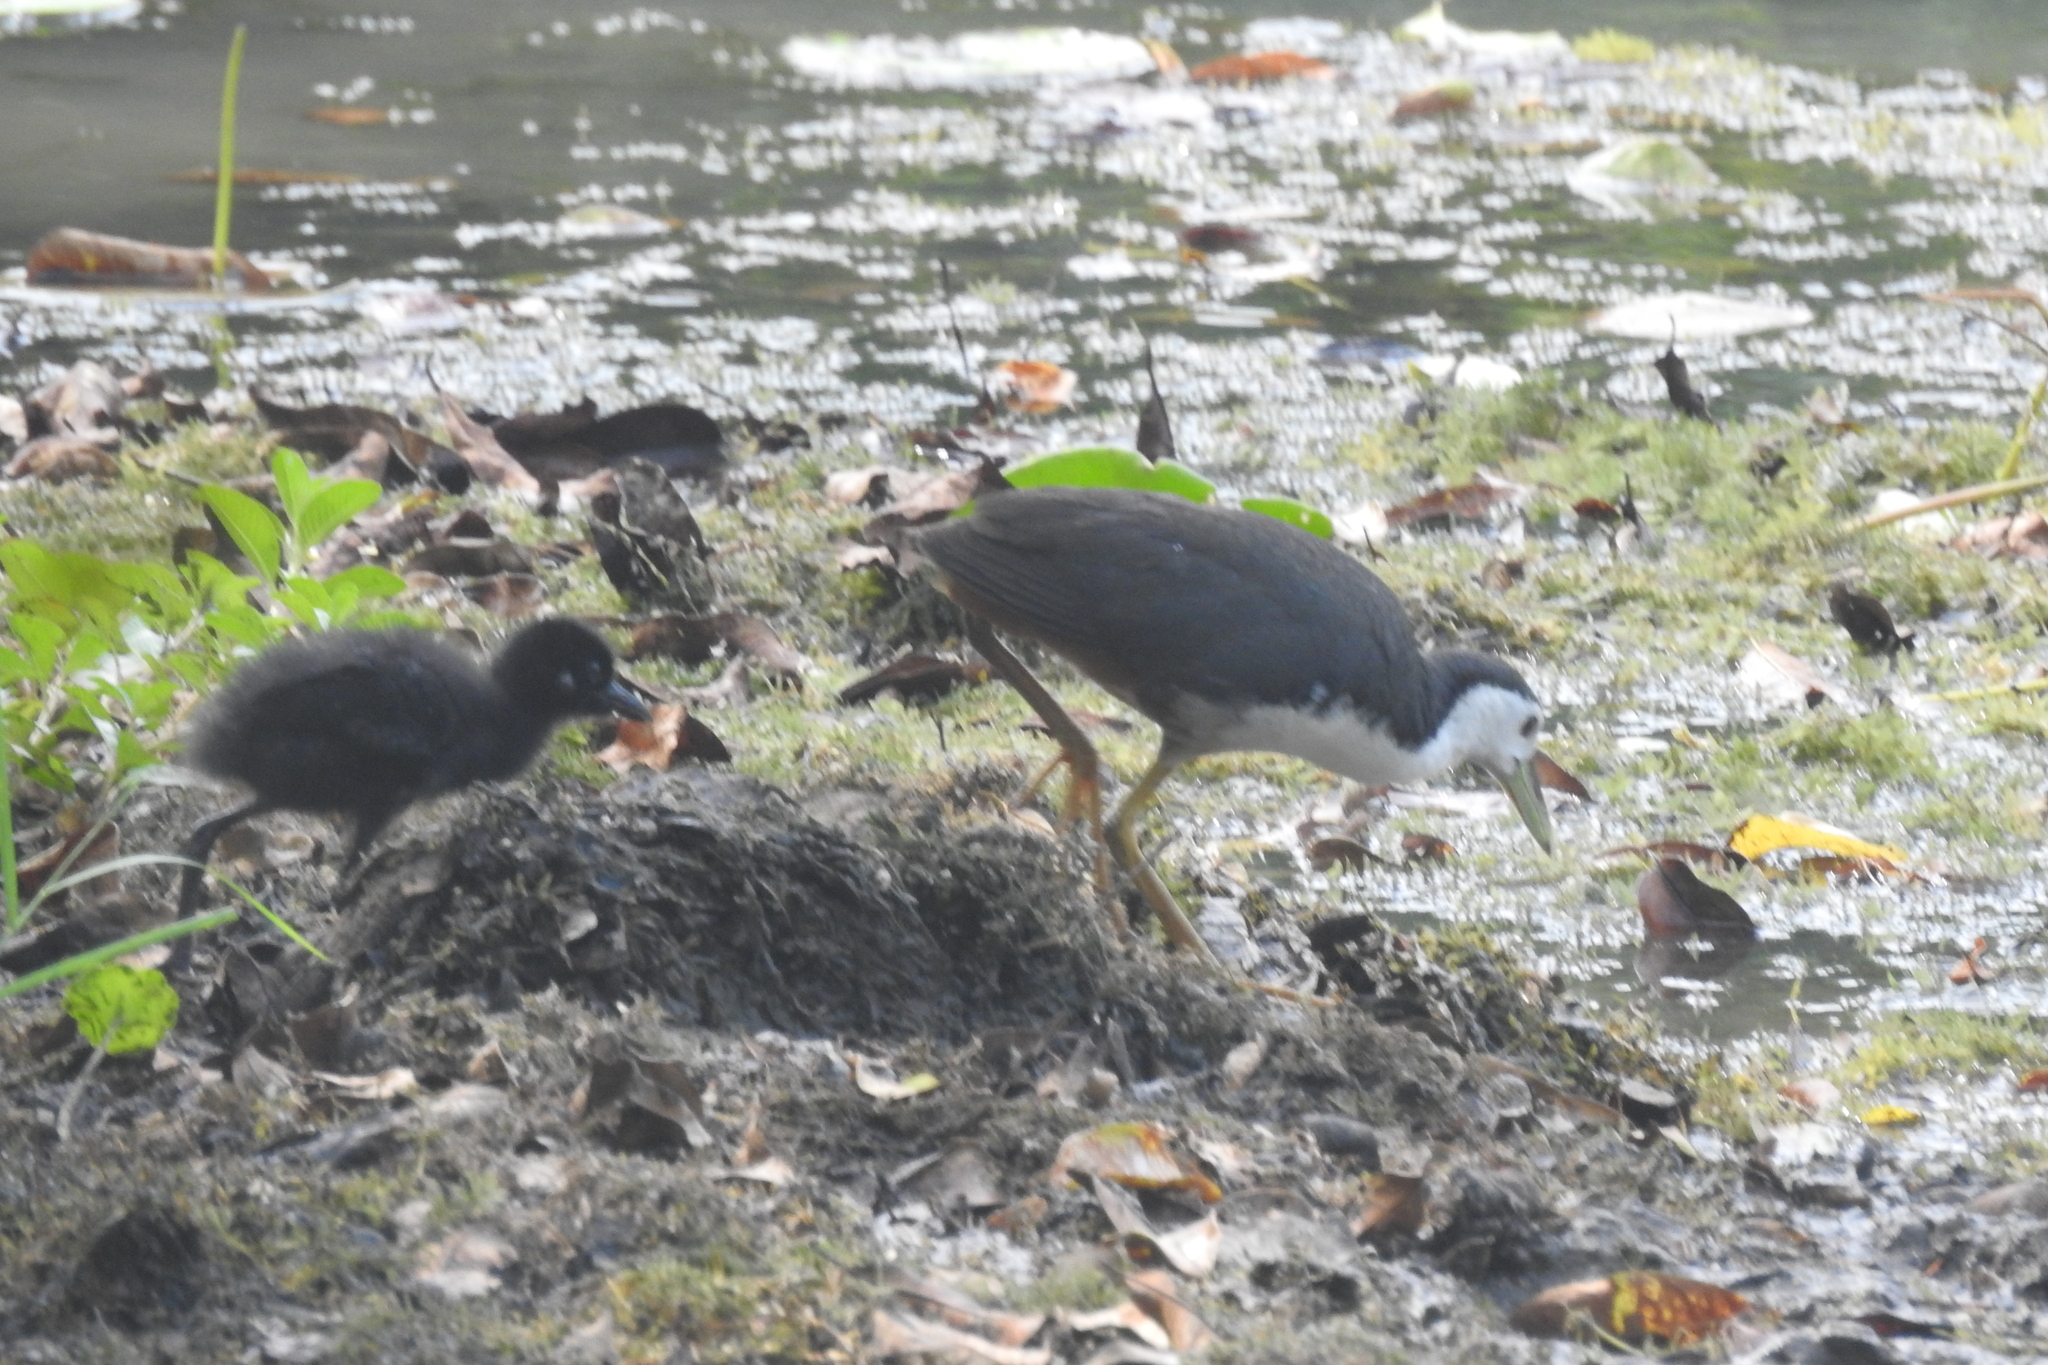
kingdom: Animalia
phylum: Chordata
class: Aves
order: Gruiformes
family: Rallidae
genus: Amaurornis
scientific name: Amaurornis phoenicurus
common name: White-breasted waterhen
